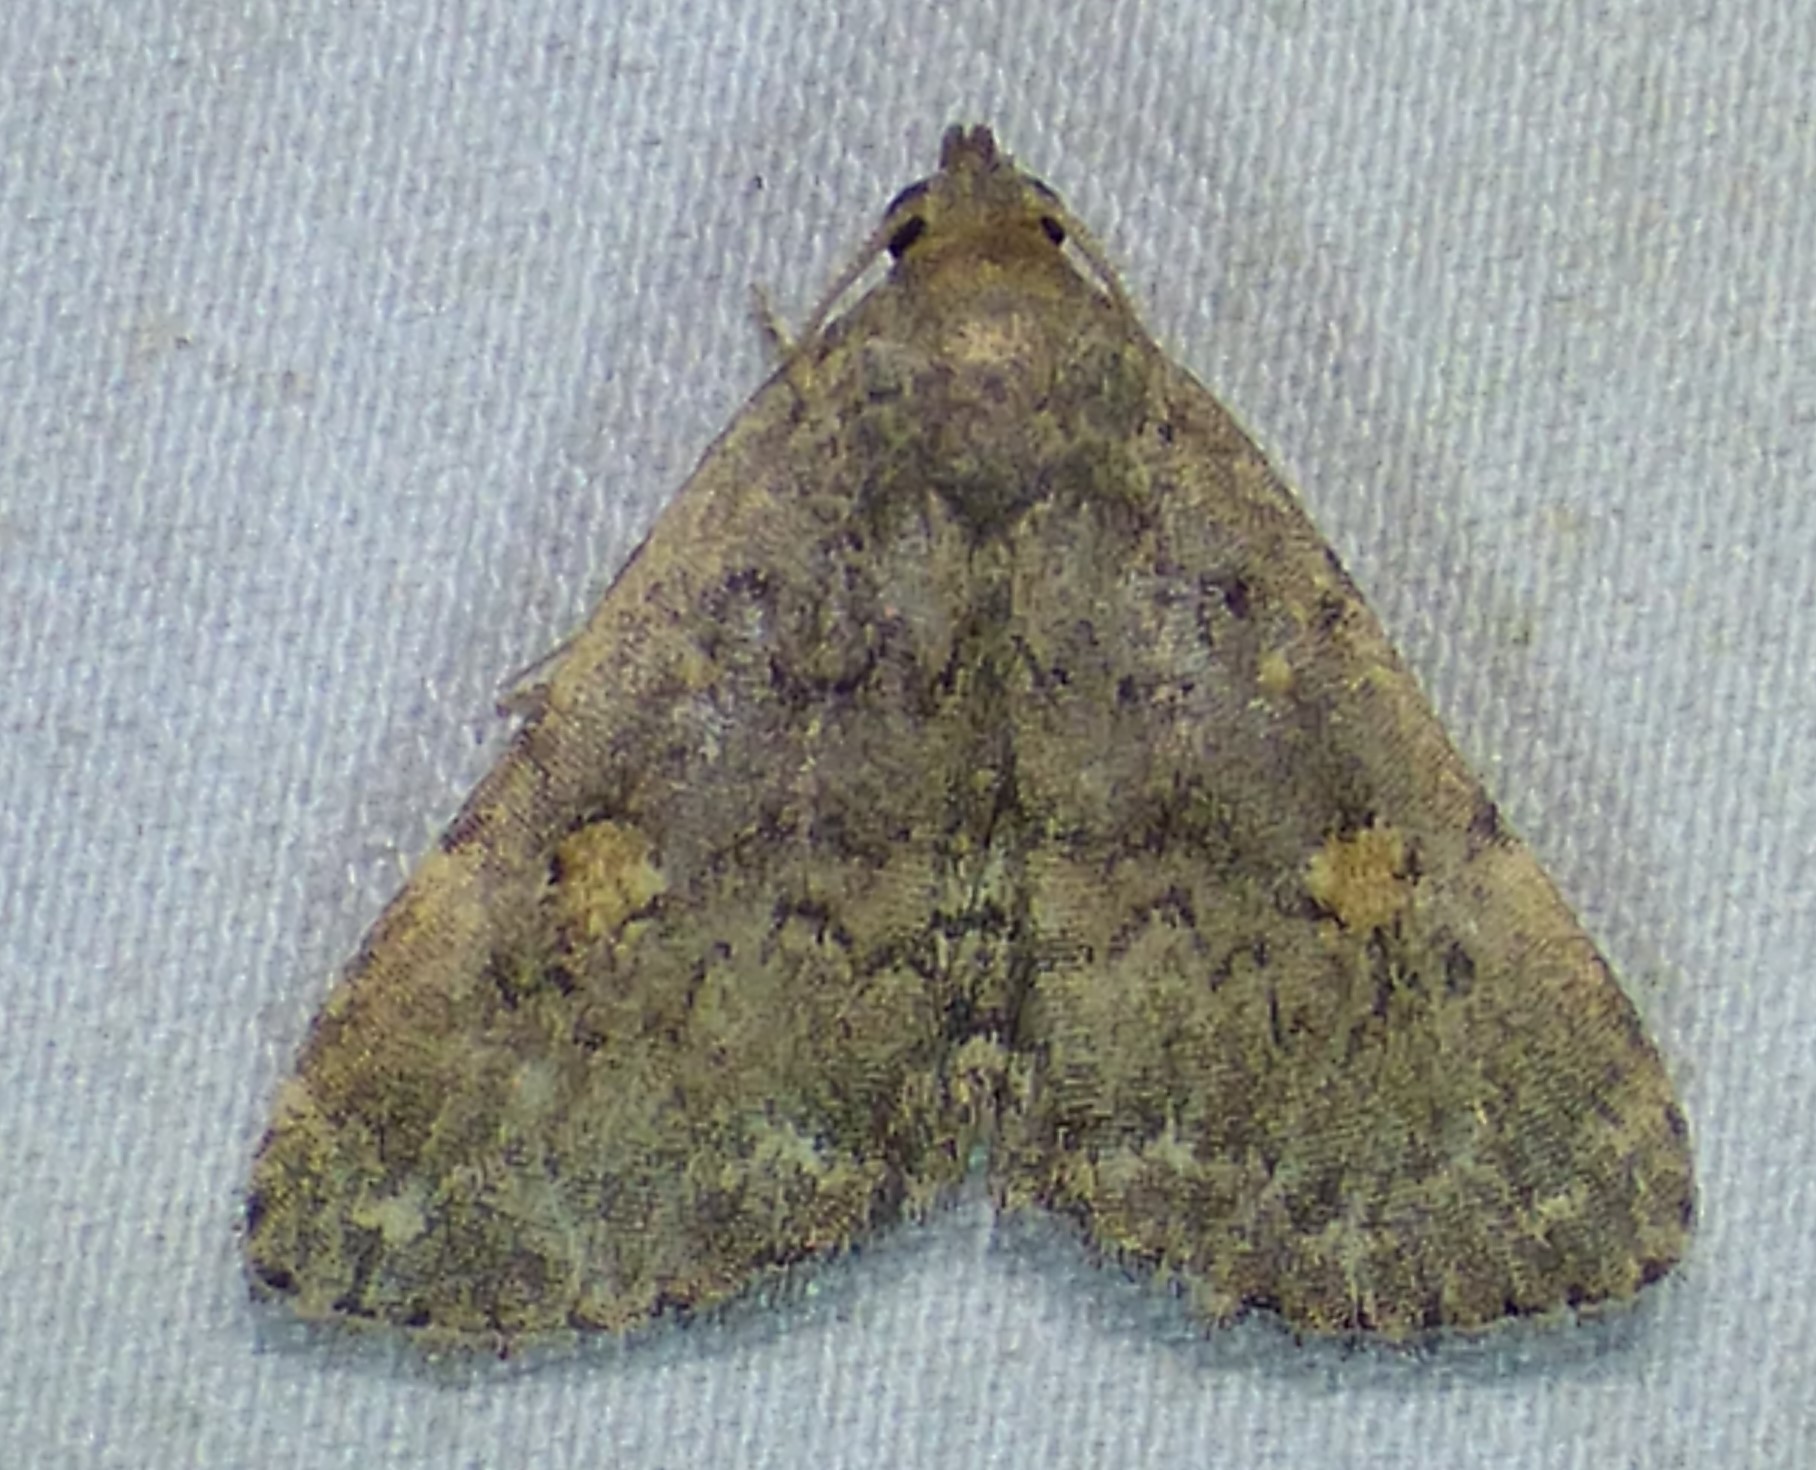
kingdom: Animalia
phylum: Arthropoda
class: Insecta
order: Lepidoptera
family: Erebidae
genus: Idia
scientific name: Idia aemula
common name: Common idia moth
